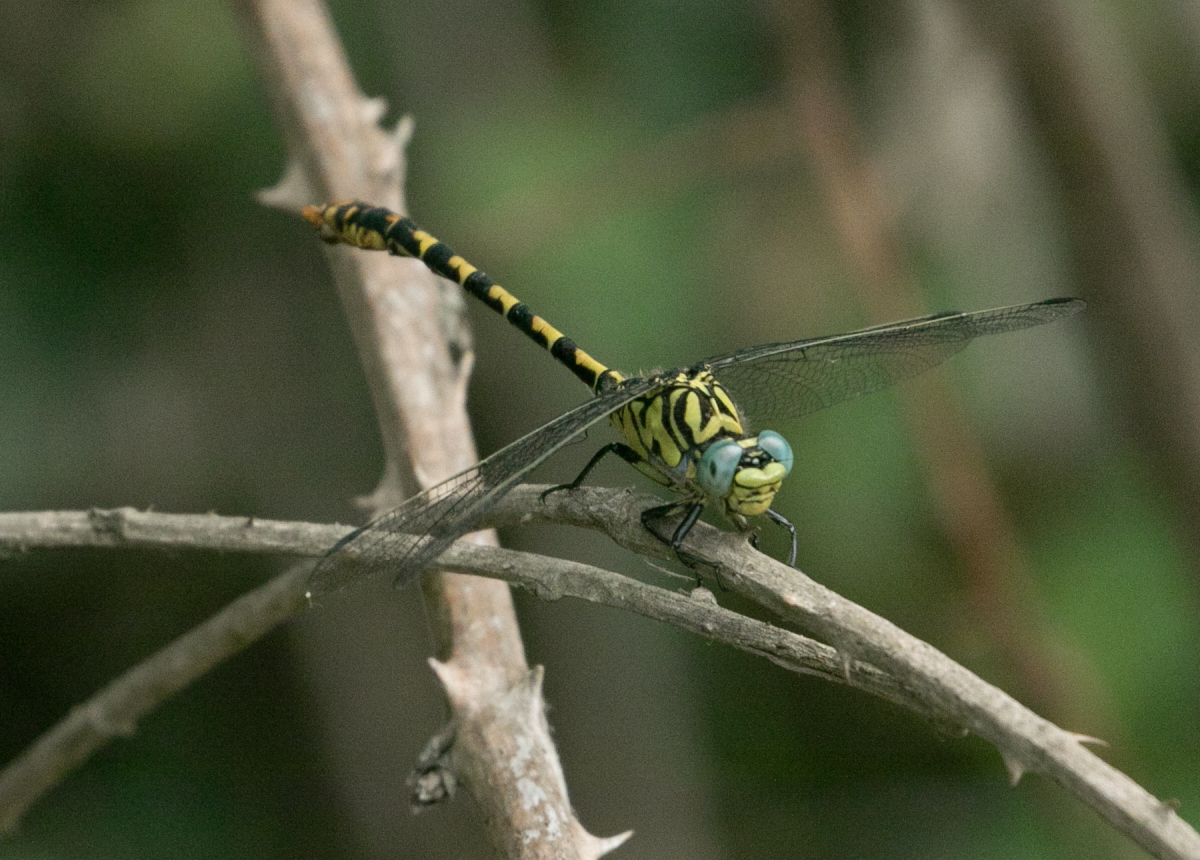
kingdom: Animalia
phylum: Arthropoda
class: Insecta
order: Odonata
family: Gomphidae
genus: Onychogomphus
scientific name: Onychogomphus forcipatus
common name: Small pincertail
